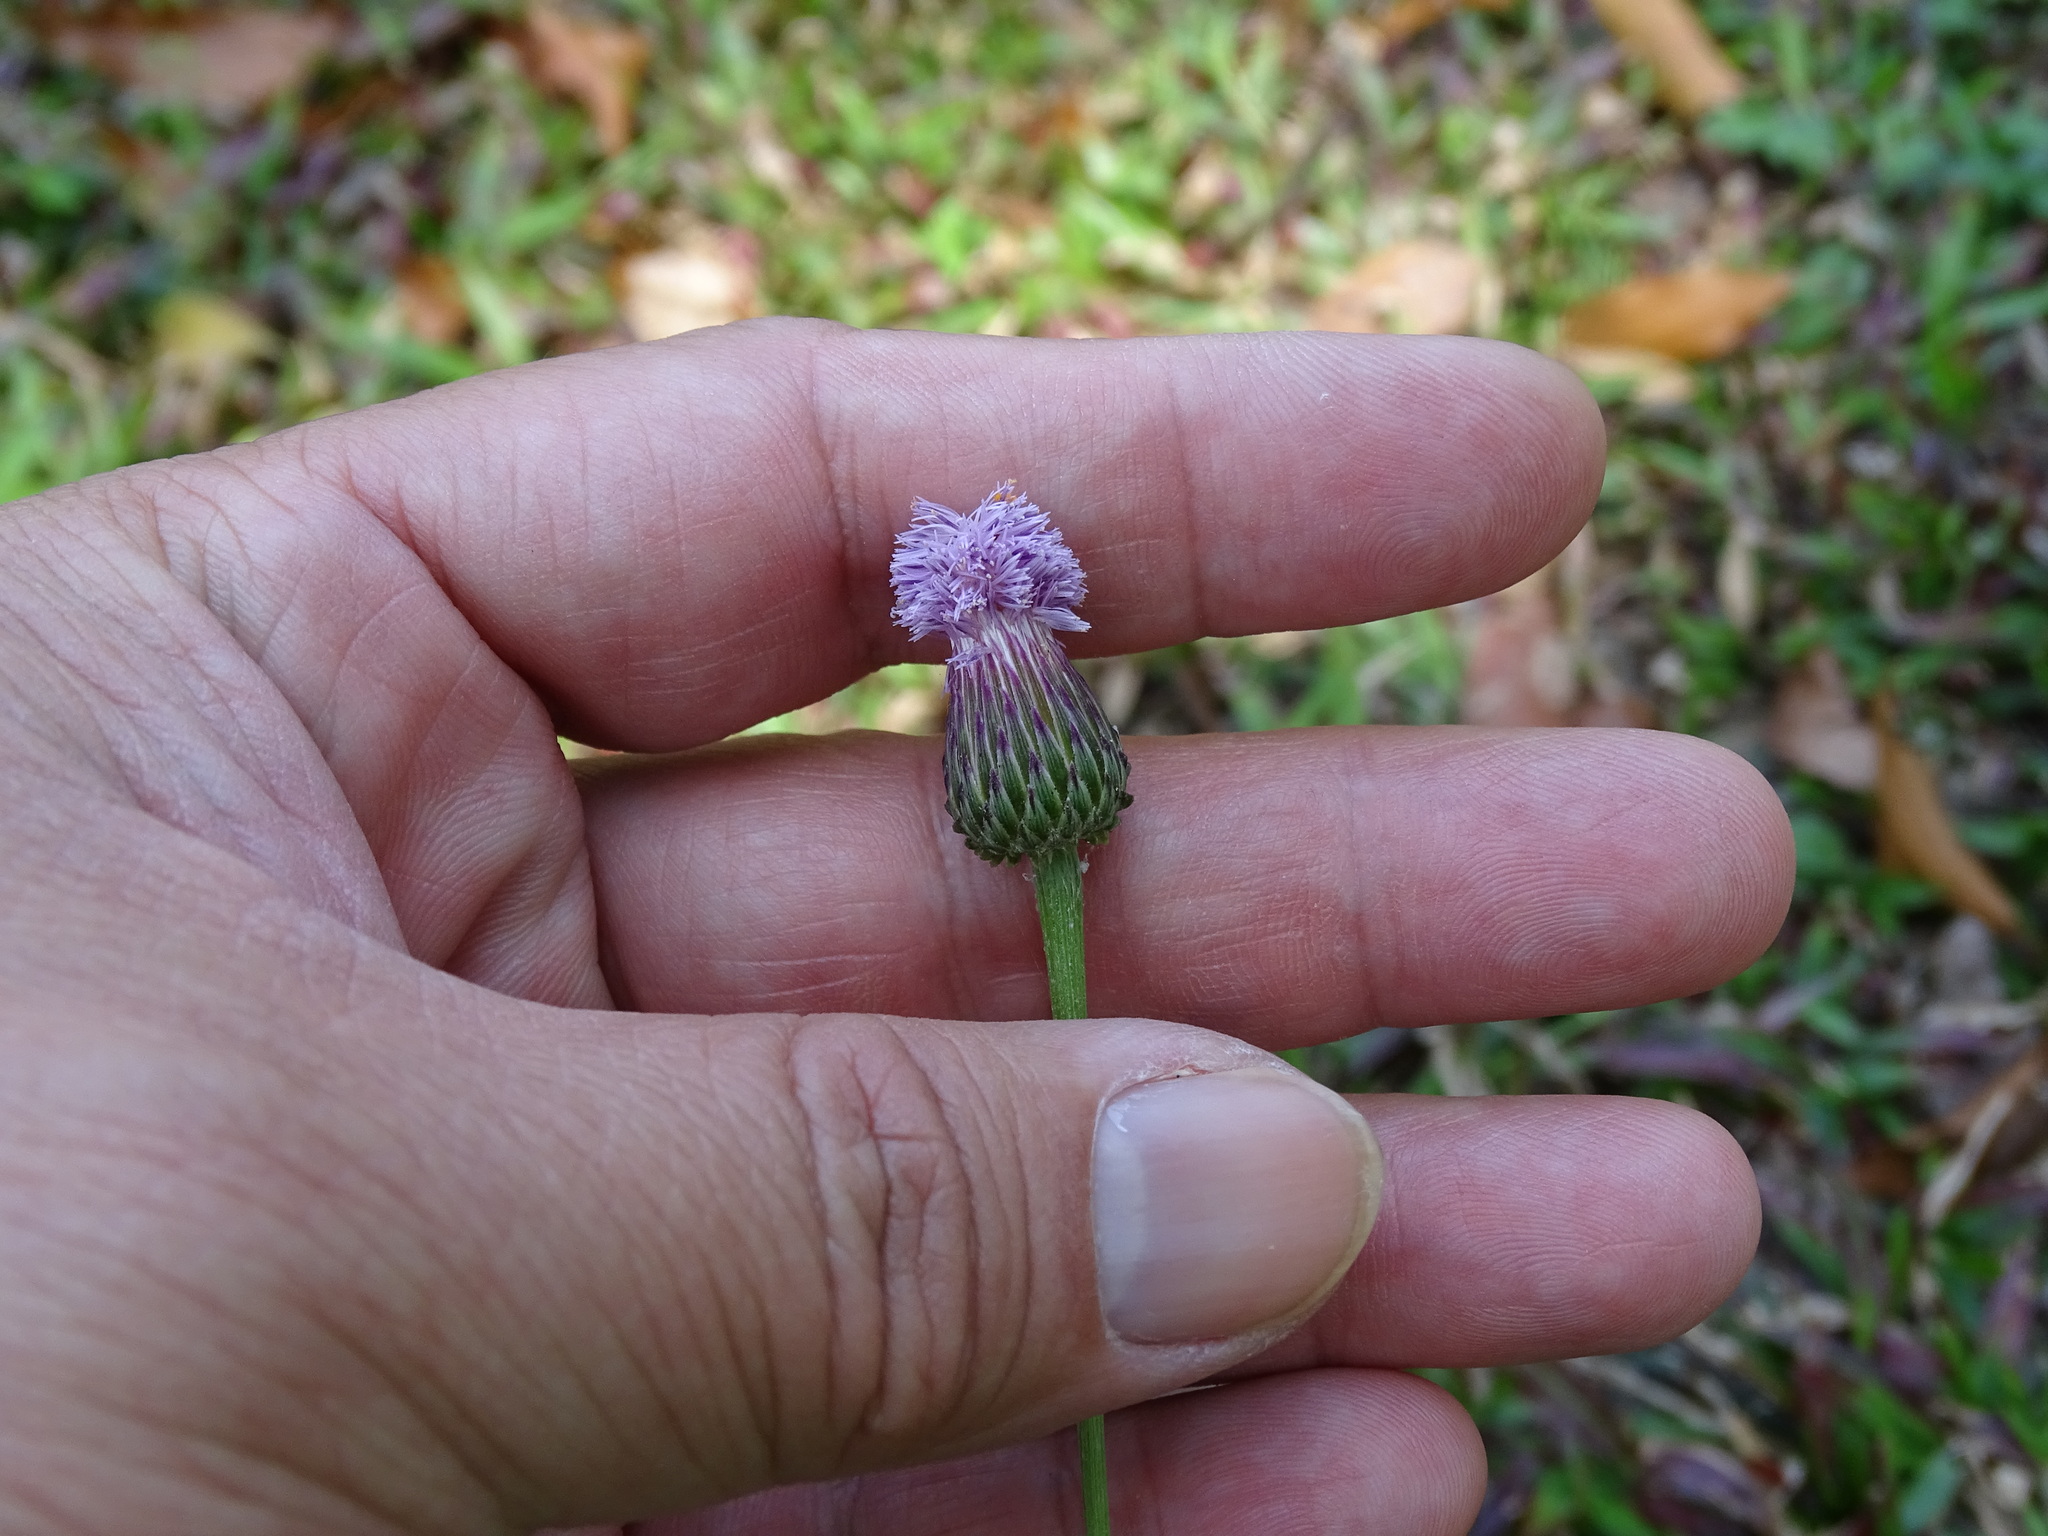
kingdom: Plantae
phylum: Tracheophyta
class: Magnoliopsida
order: Asterales
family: Asteraceae
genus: Saussurea
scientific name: Saussurea lyrata
